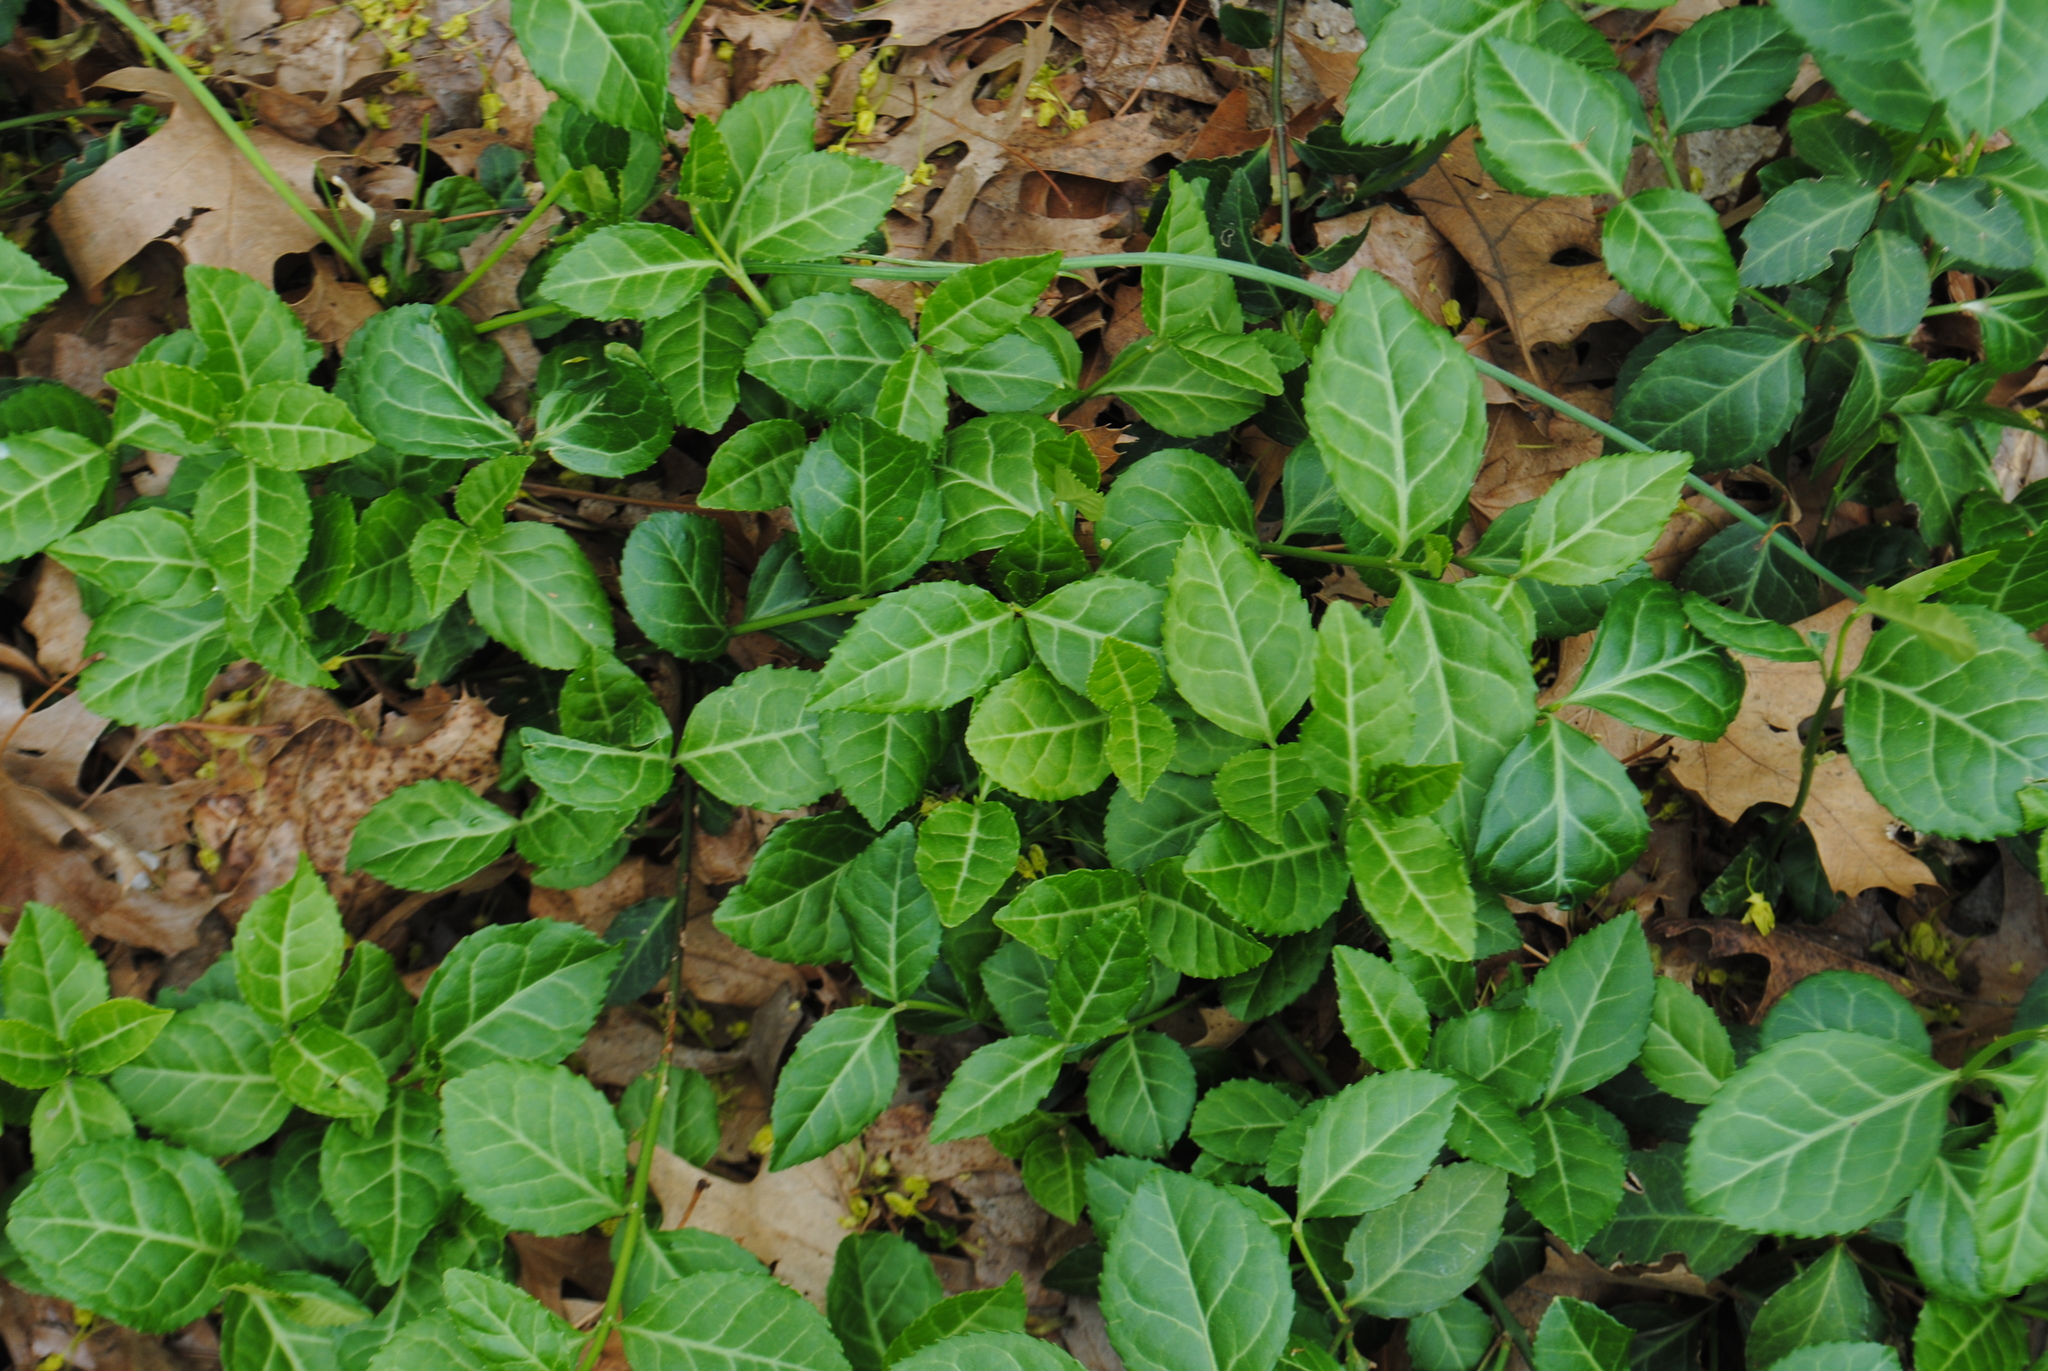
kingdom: Plantae
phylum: Tracheophyta
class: Magnoliopsida
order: Celastrales
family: Celastraceae
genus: Euonymus
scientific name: Euonymus fortunei
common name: Climbing euonymus
